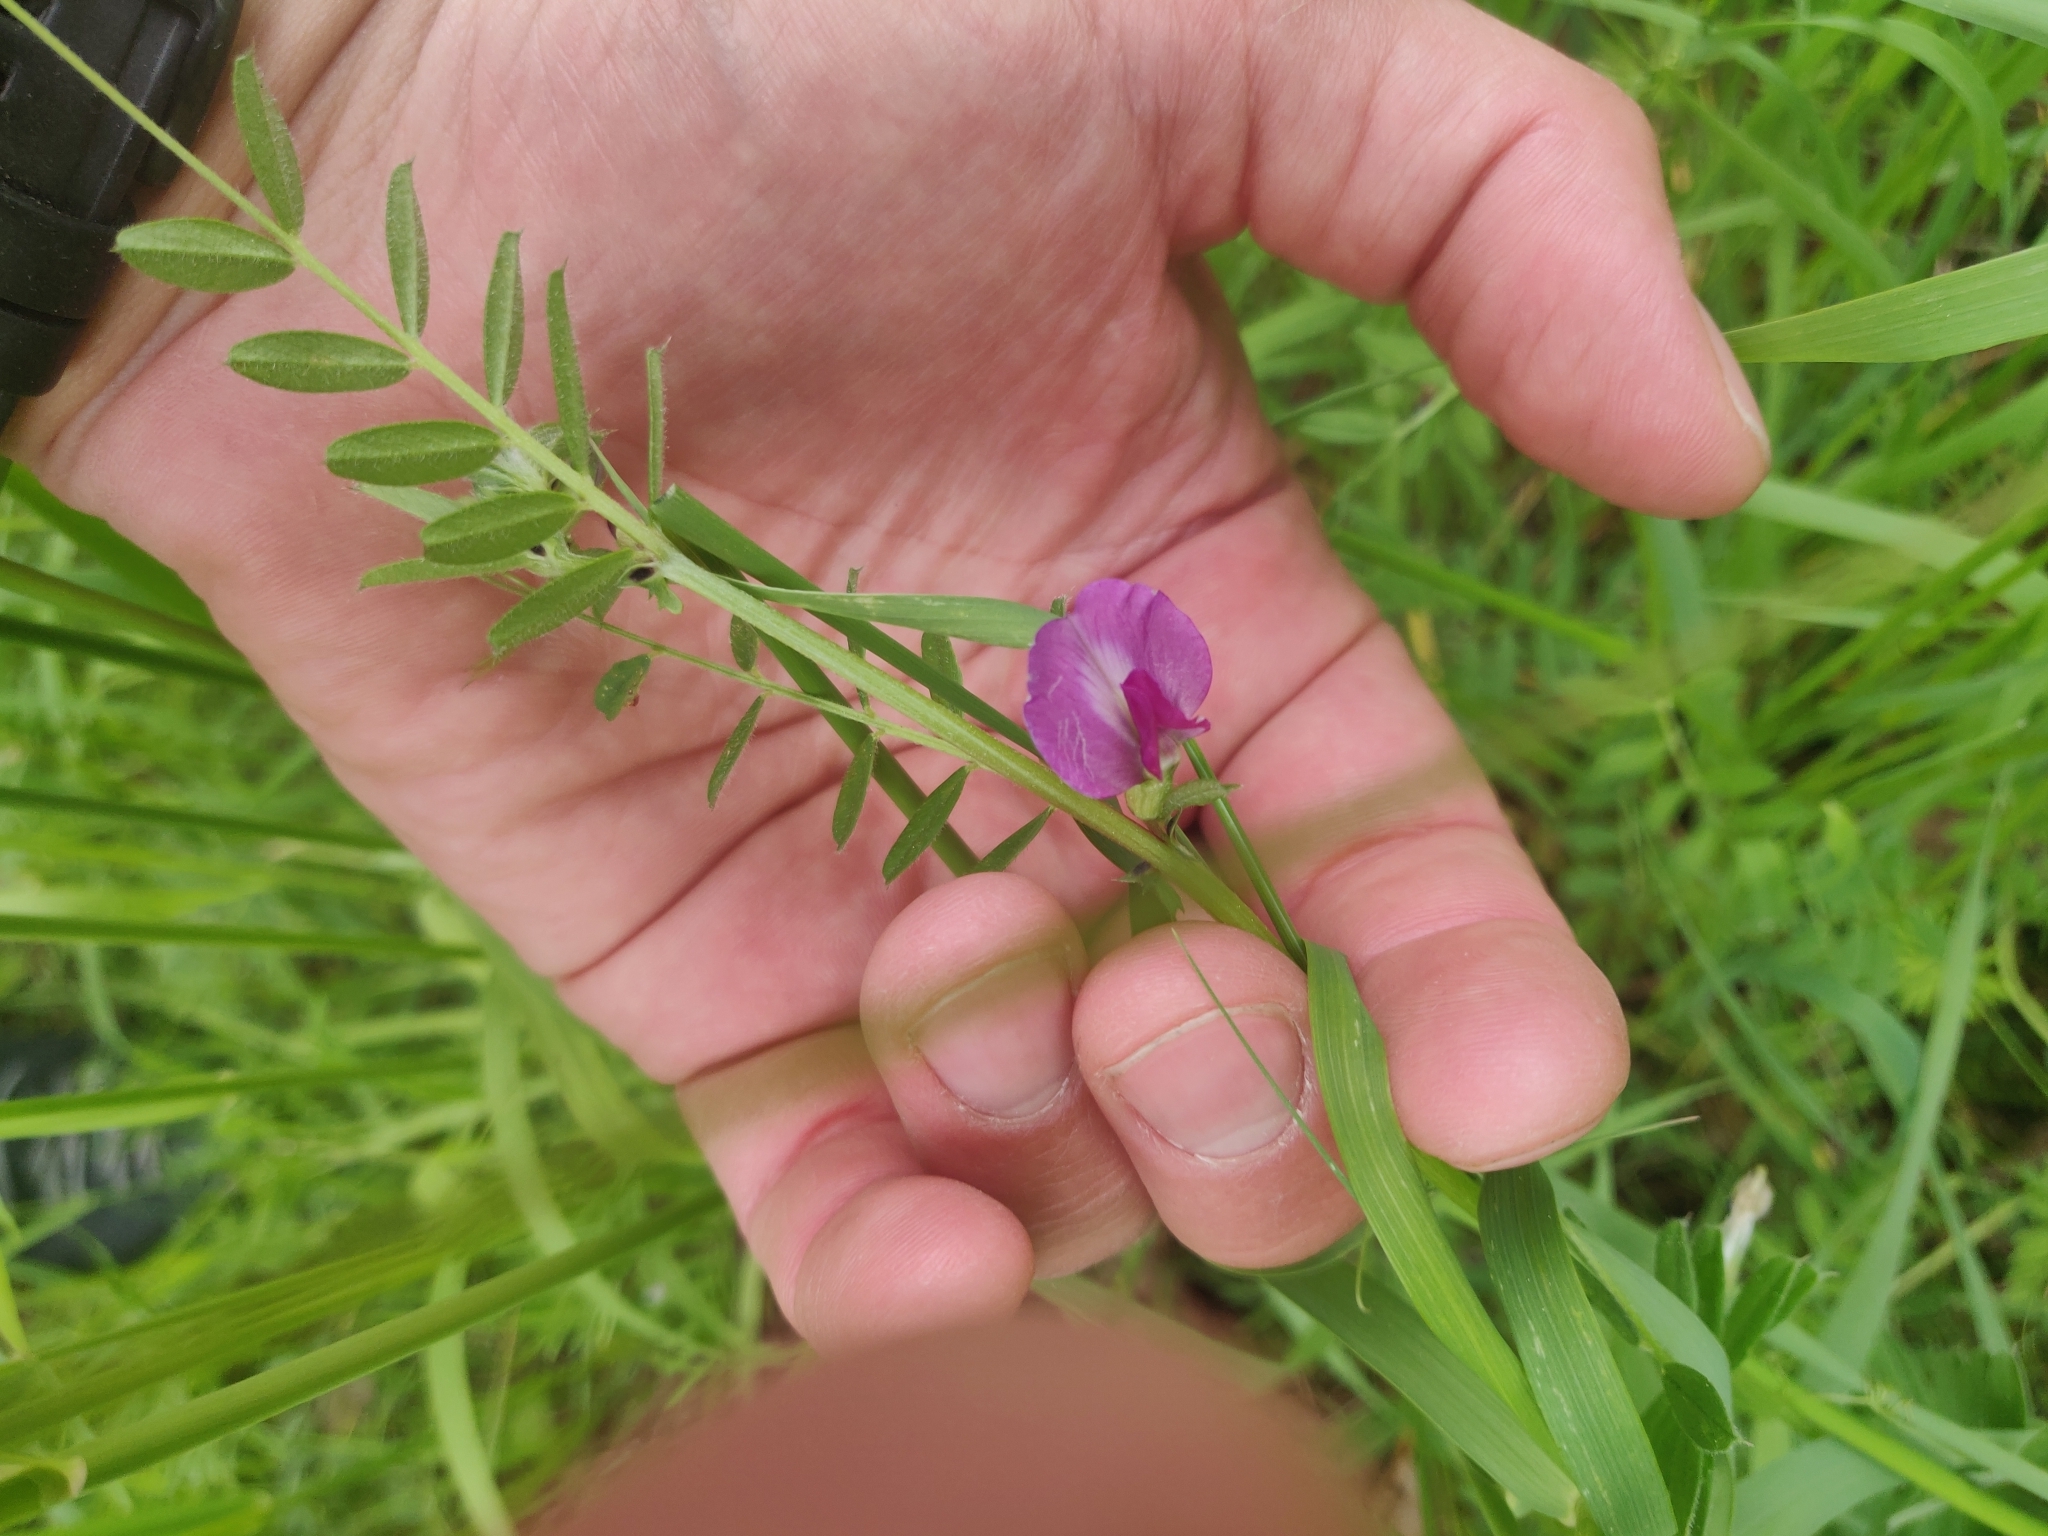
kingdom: Plantae
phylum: Tracheophyta
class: Magnoliopsida
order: Fabales
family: Fabaceae
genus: Vicia
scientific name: Vicia sativa
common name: Garden vetch
